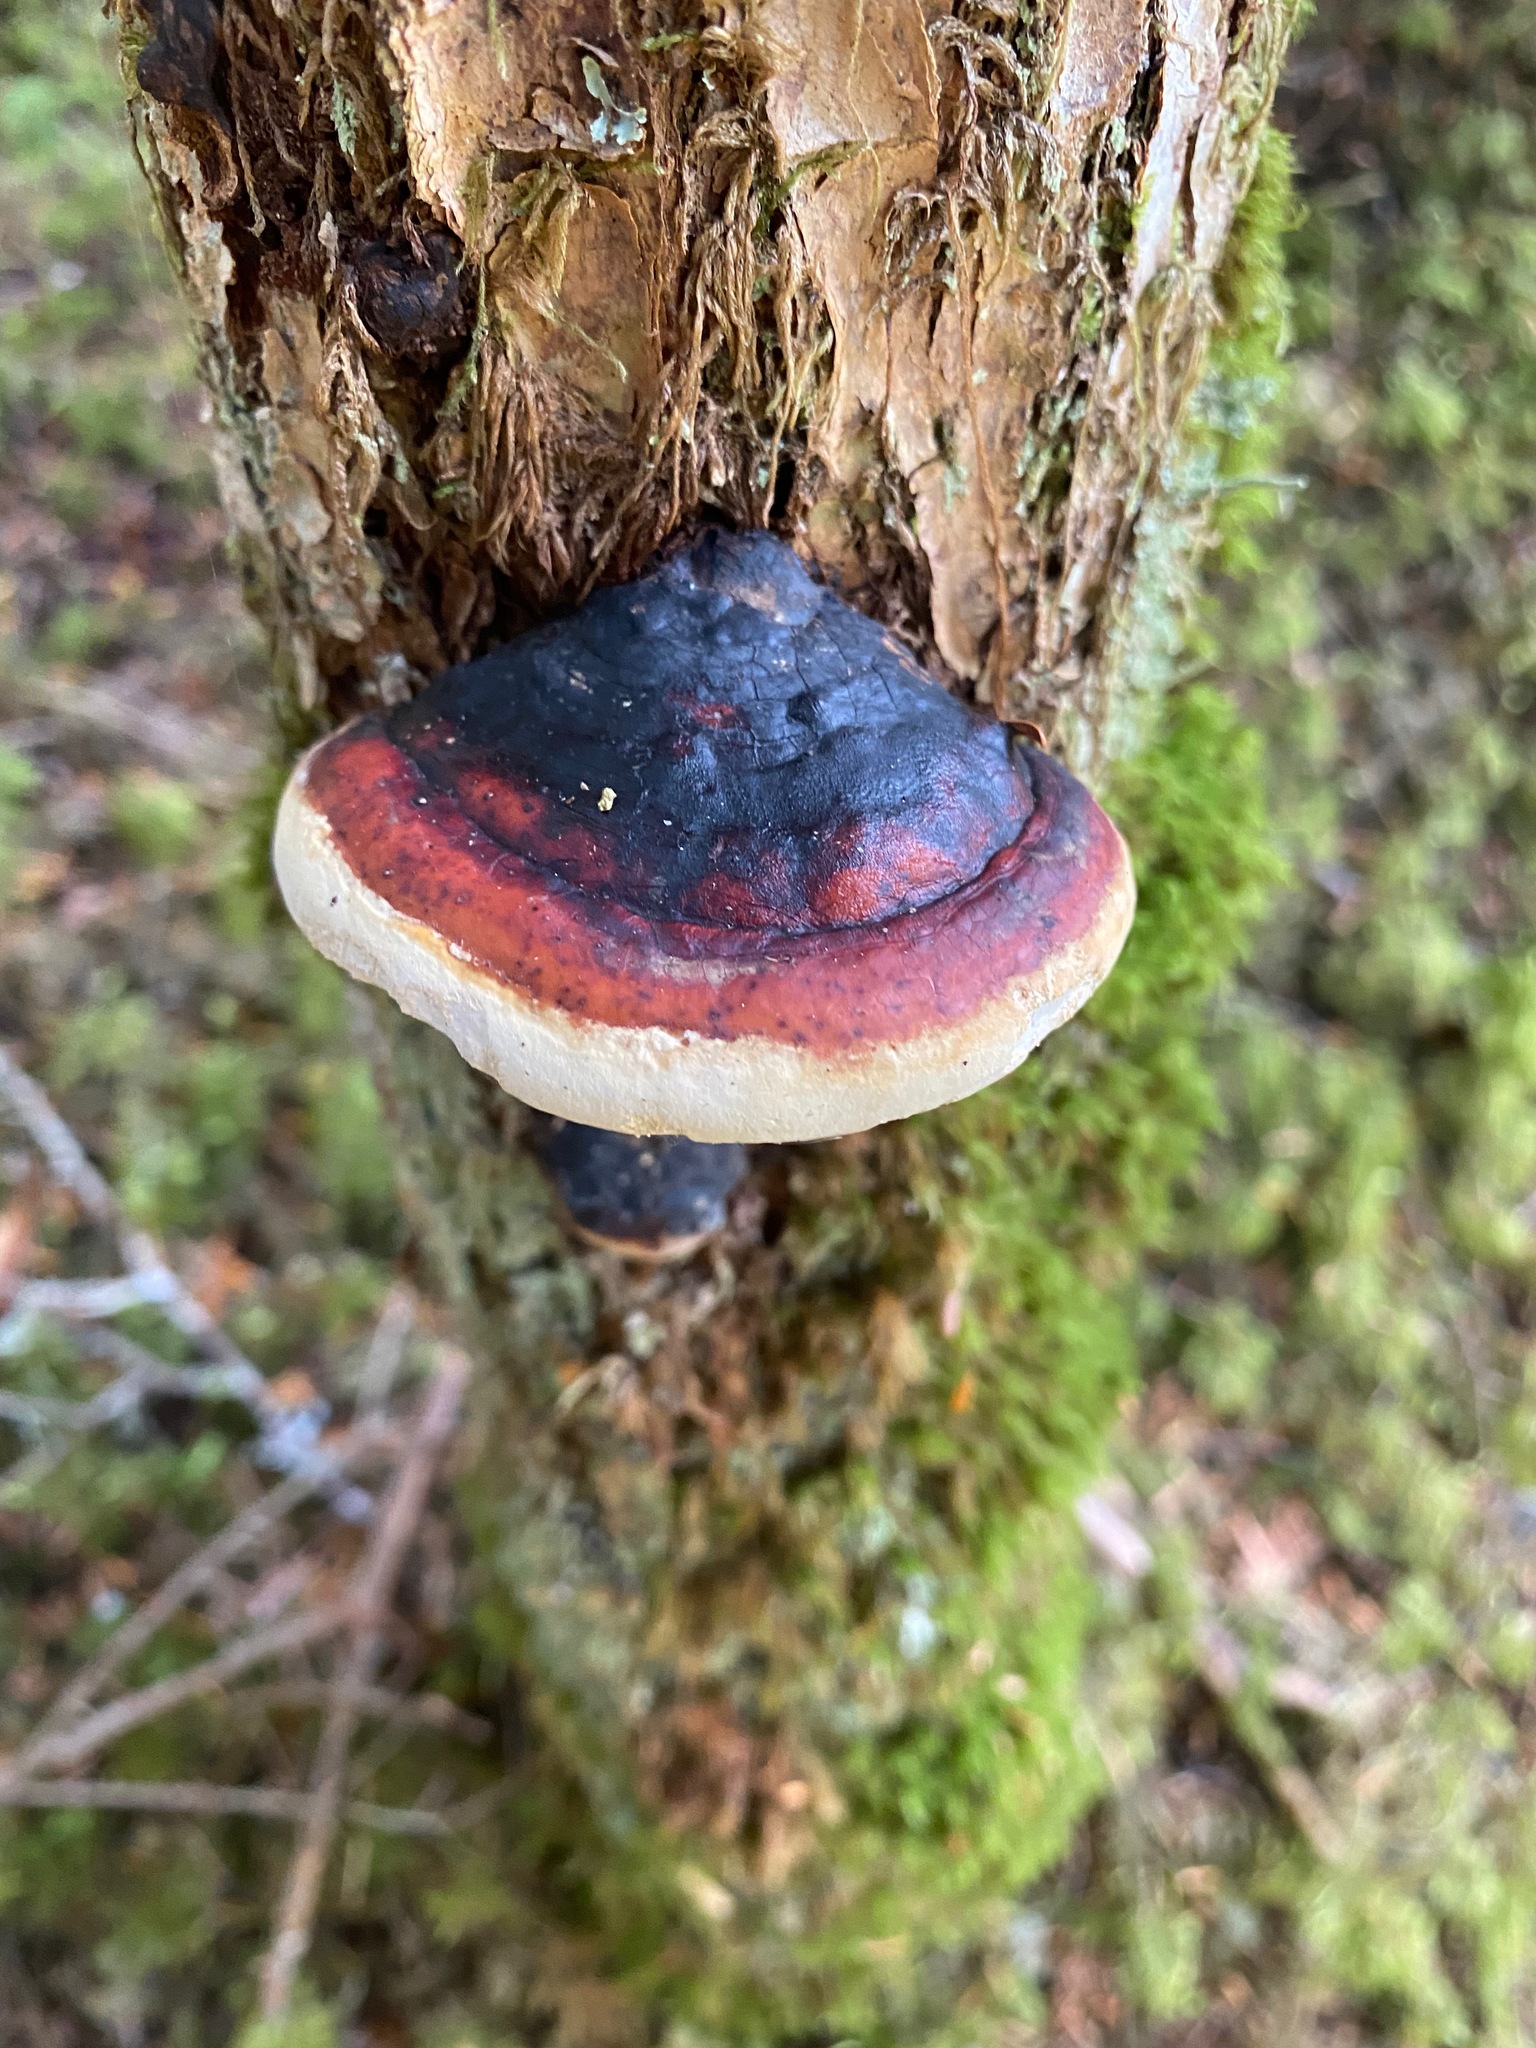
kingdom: Fungi
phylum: Basidiomycota
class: Agaricomycetes
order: Polyporales
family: Fomitopsidaceae
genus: Fomitopsis
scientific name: Fomitopsis mounceae
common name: Northern red belt
